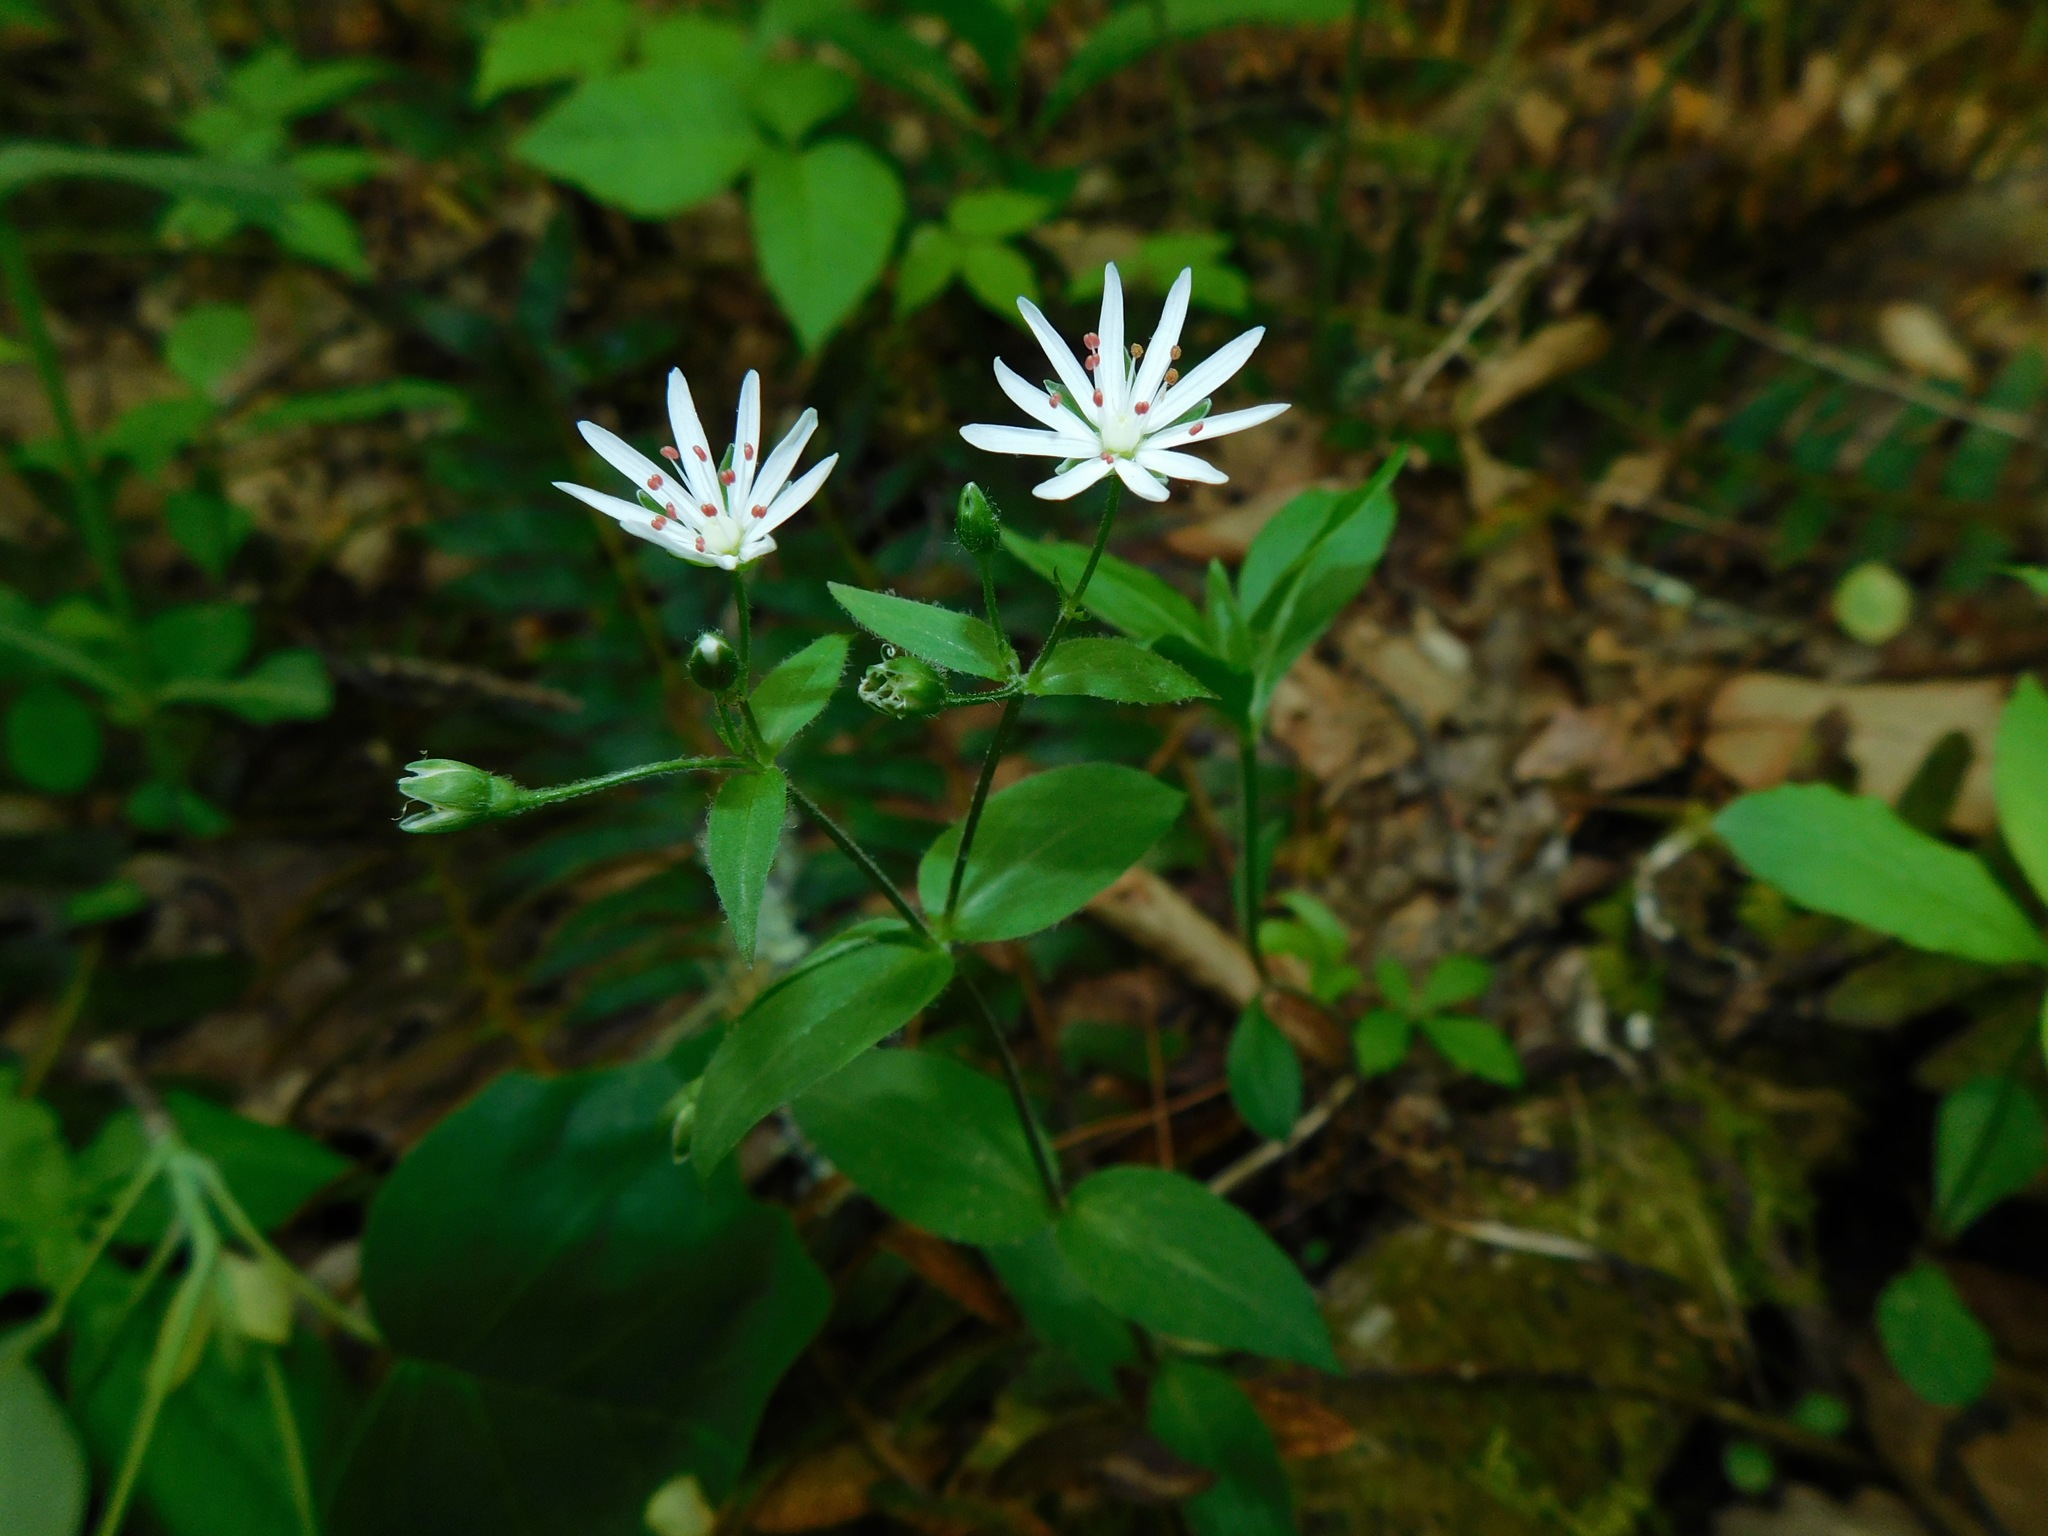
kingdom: Plantae
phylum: Tracheophyta
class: Magnoliopsida
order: Caryophyllales
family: Caryophyllaceae
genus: Stellaria
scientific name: Stellaria pubera
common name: Star chickweed
